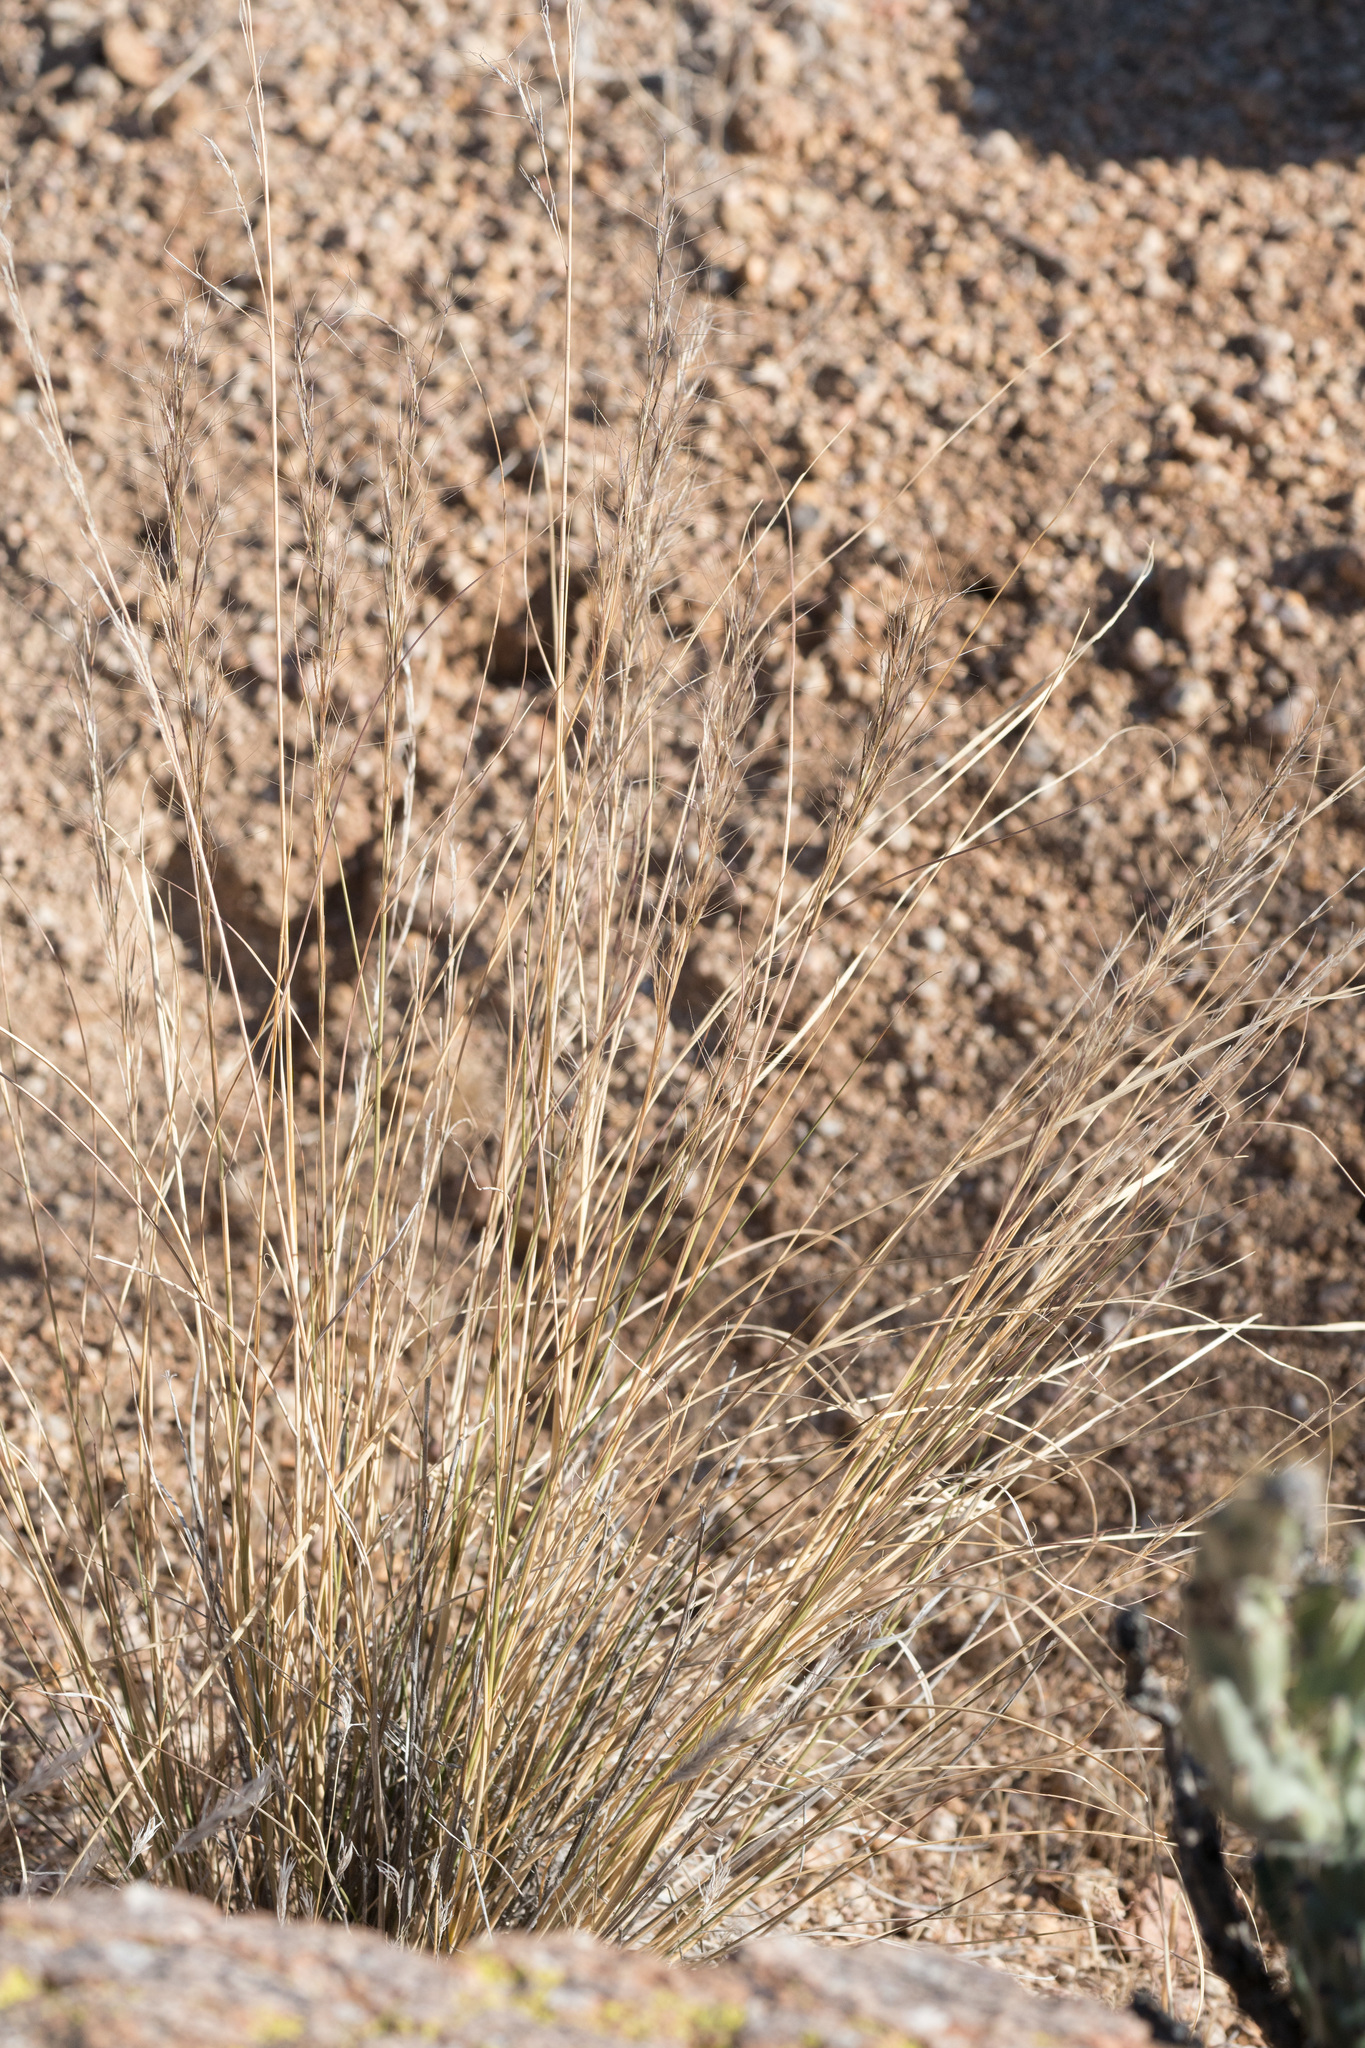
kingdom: Plantae
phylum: Tracheophyta
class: Liliopsida
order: Poales
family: Poaceae
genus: Aristida
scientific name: Aristida purpurea
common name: Purple threeawn
